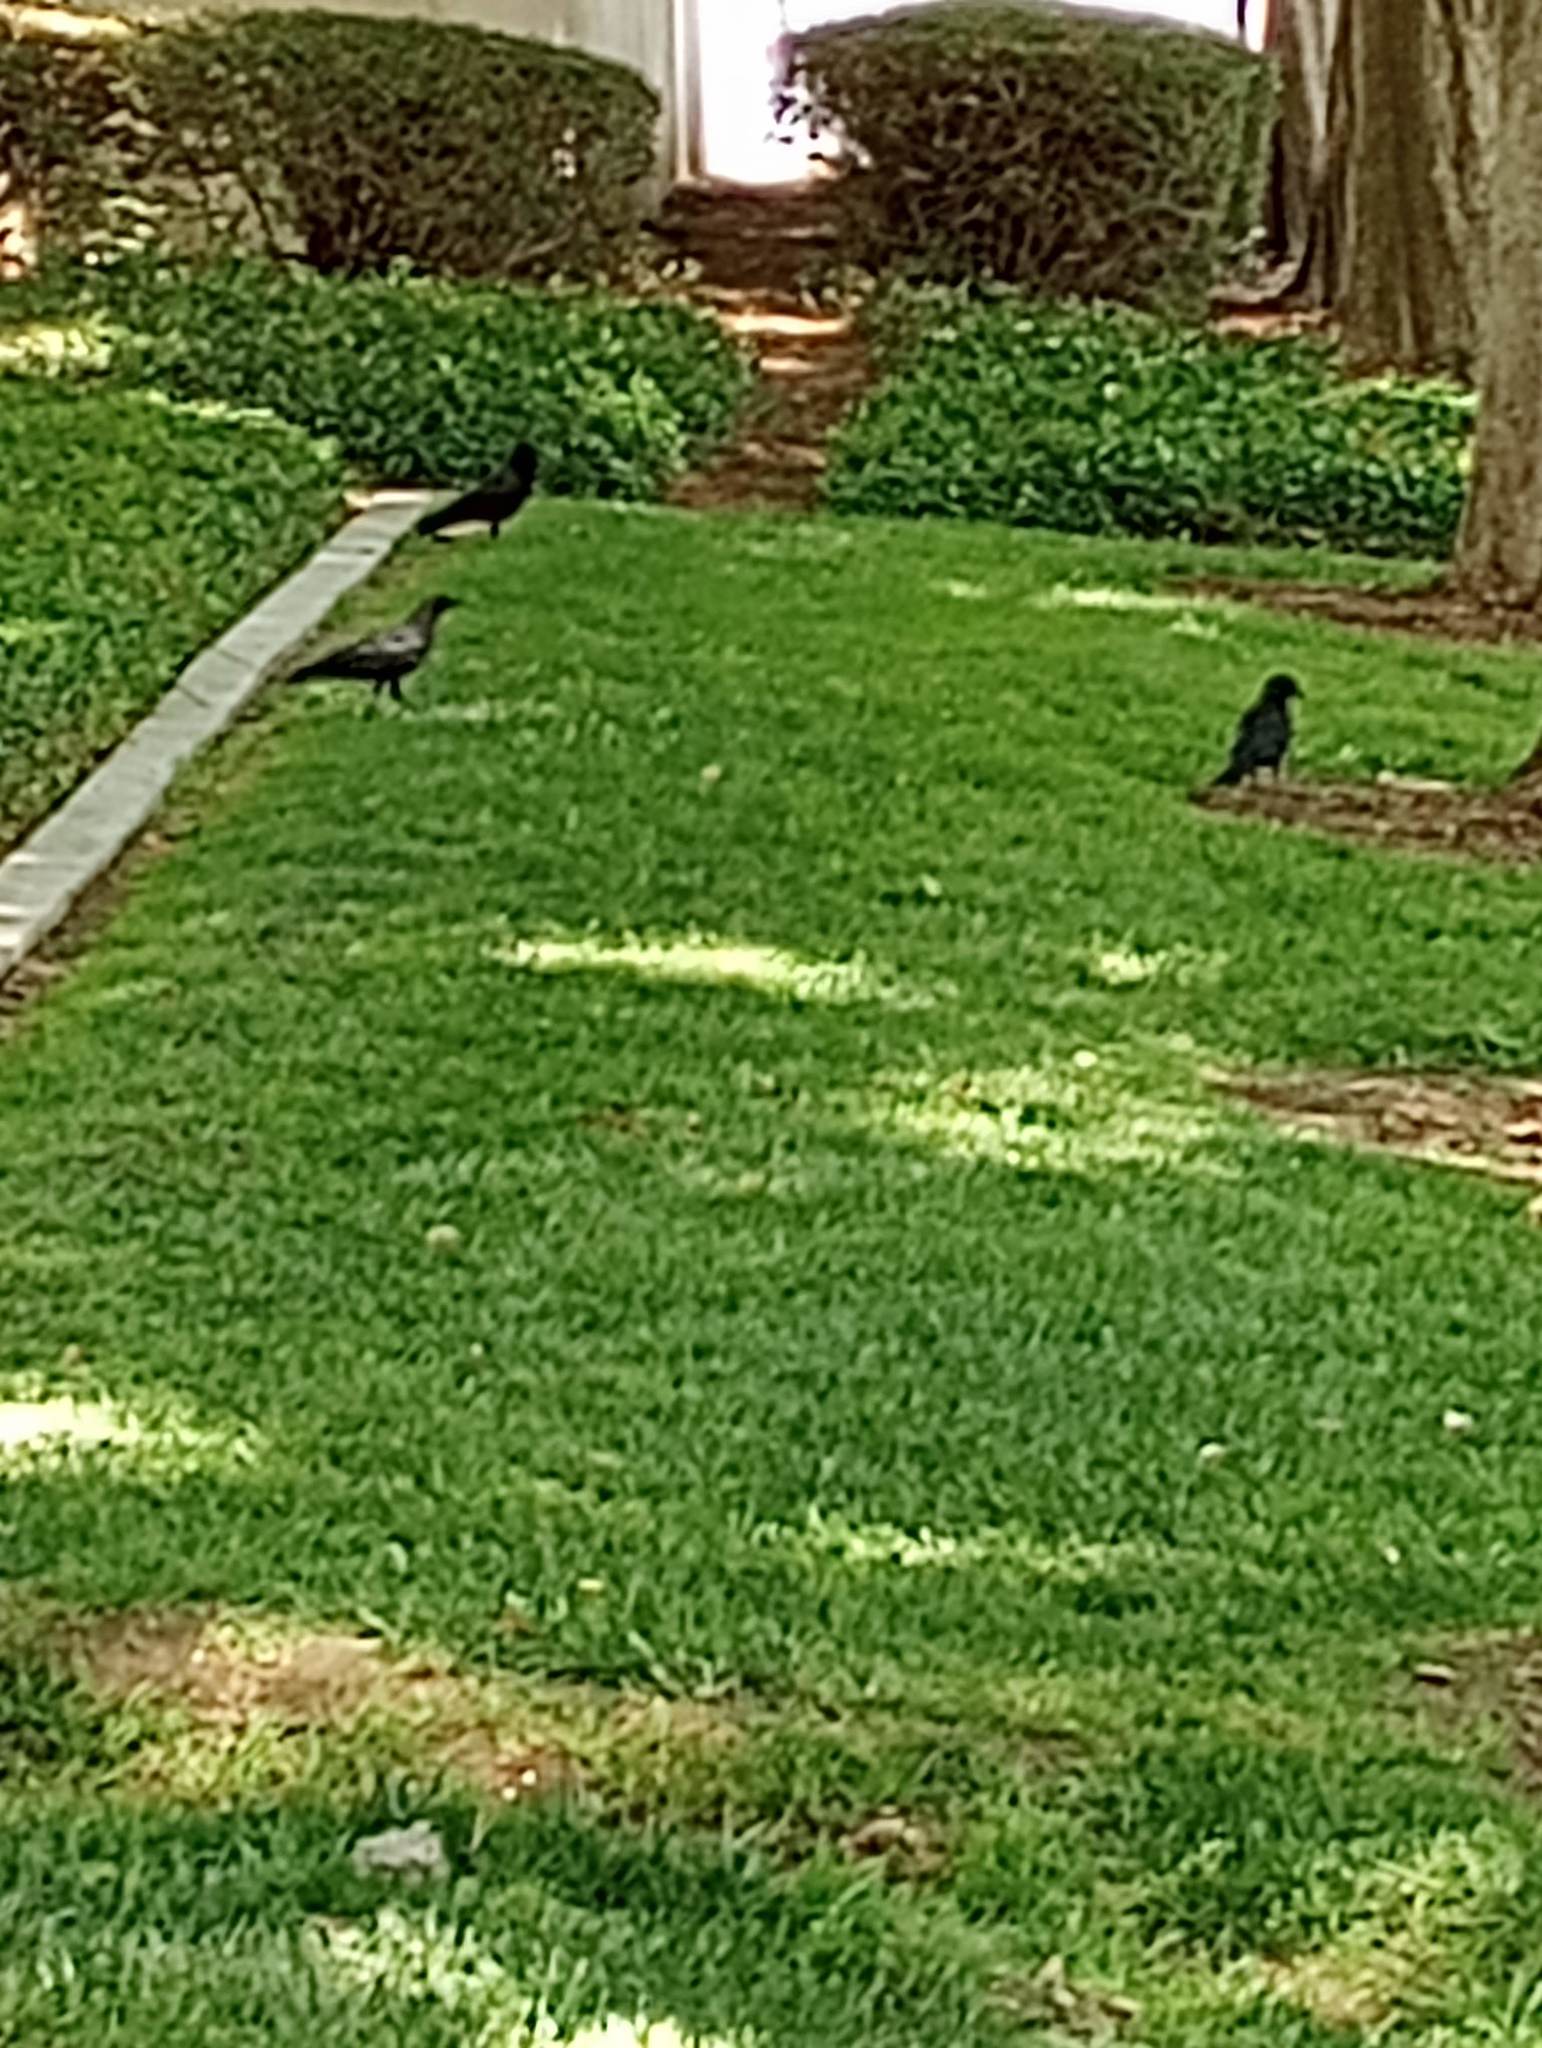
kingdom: Animalia
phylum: Chordata
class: Aves
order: Passeriformes
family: Corvidae
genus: Corvus
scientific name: Corvus brachyrhynchos
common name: American crow
